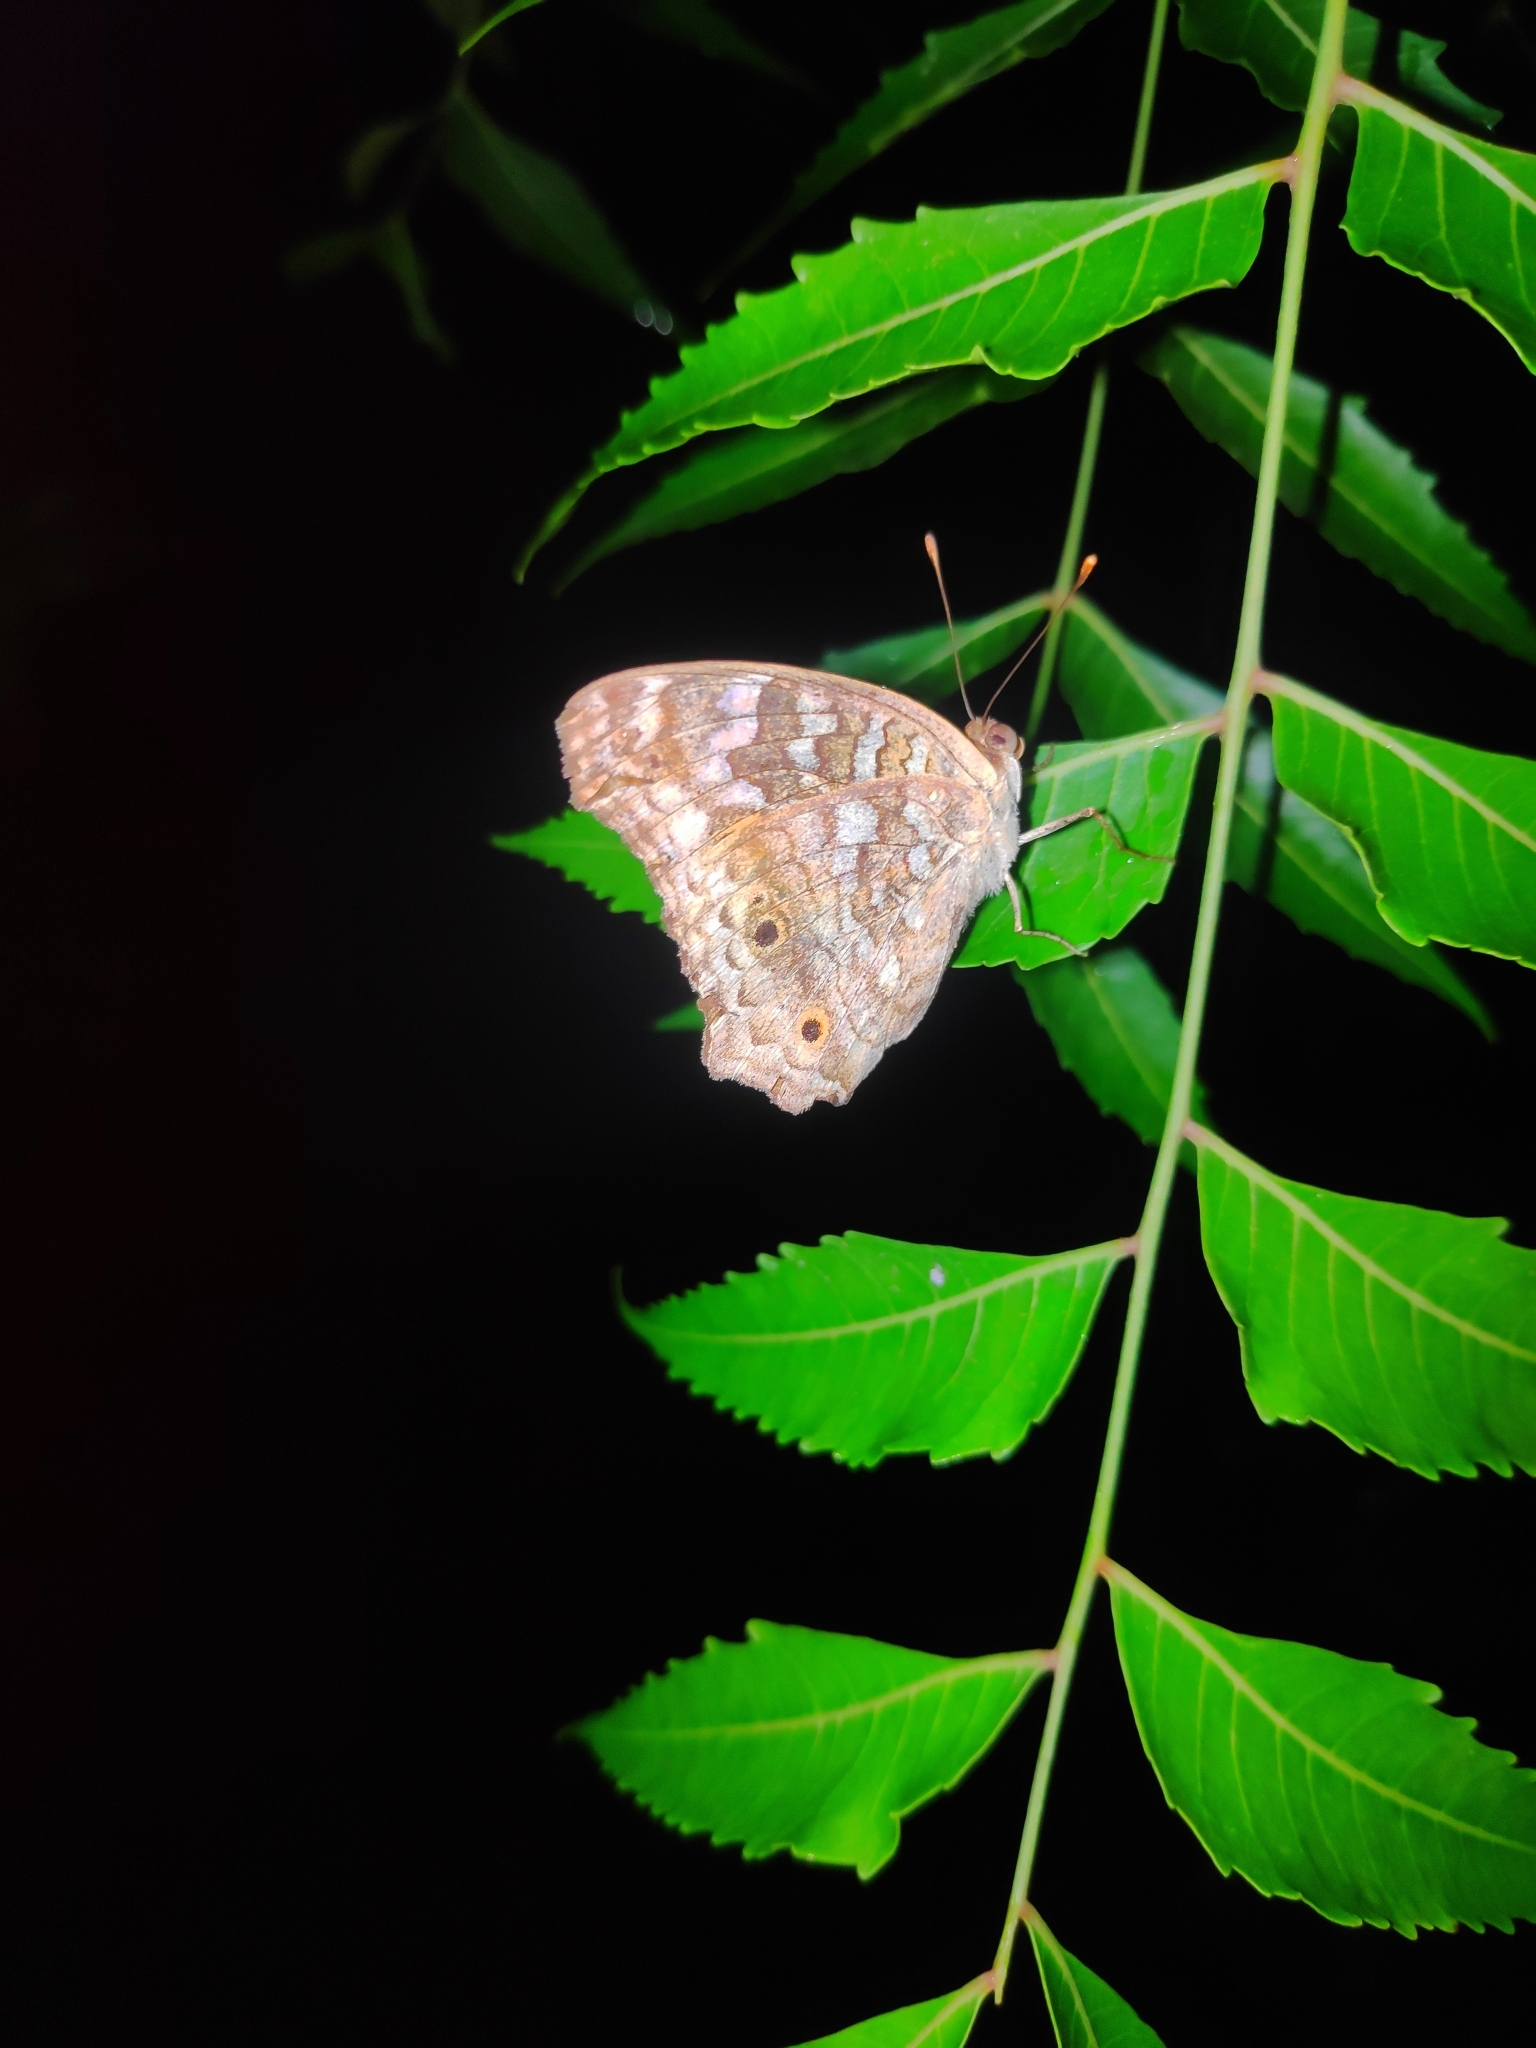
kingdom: Animalia
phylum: Arthropoda
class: Insecta
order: Lepidoptera
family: Nymphalidae
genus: Junonia
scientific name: Junonia lemonias
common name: Lemon pansy
